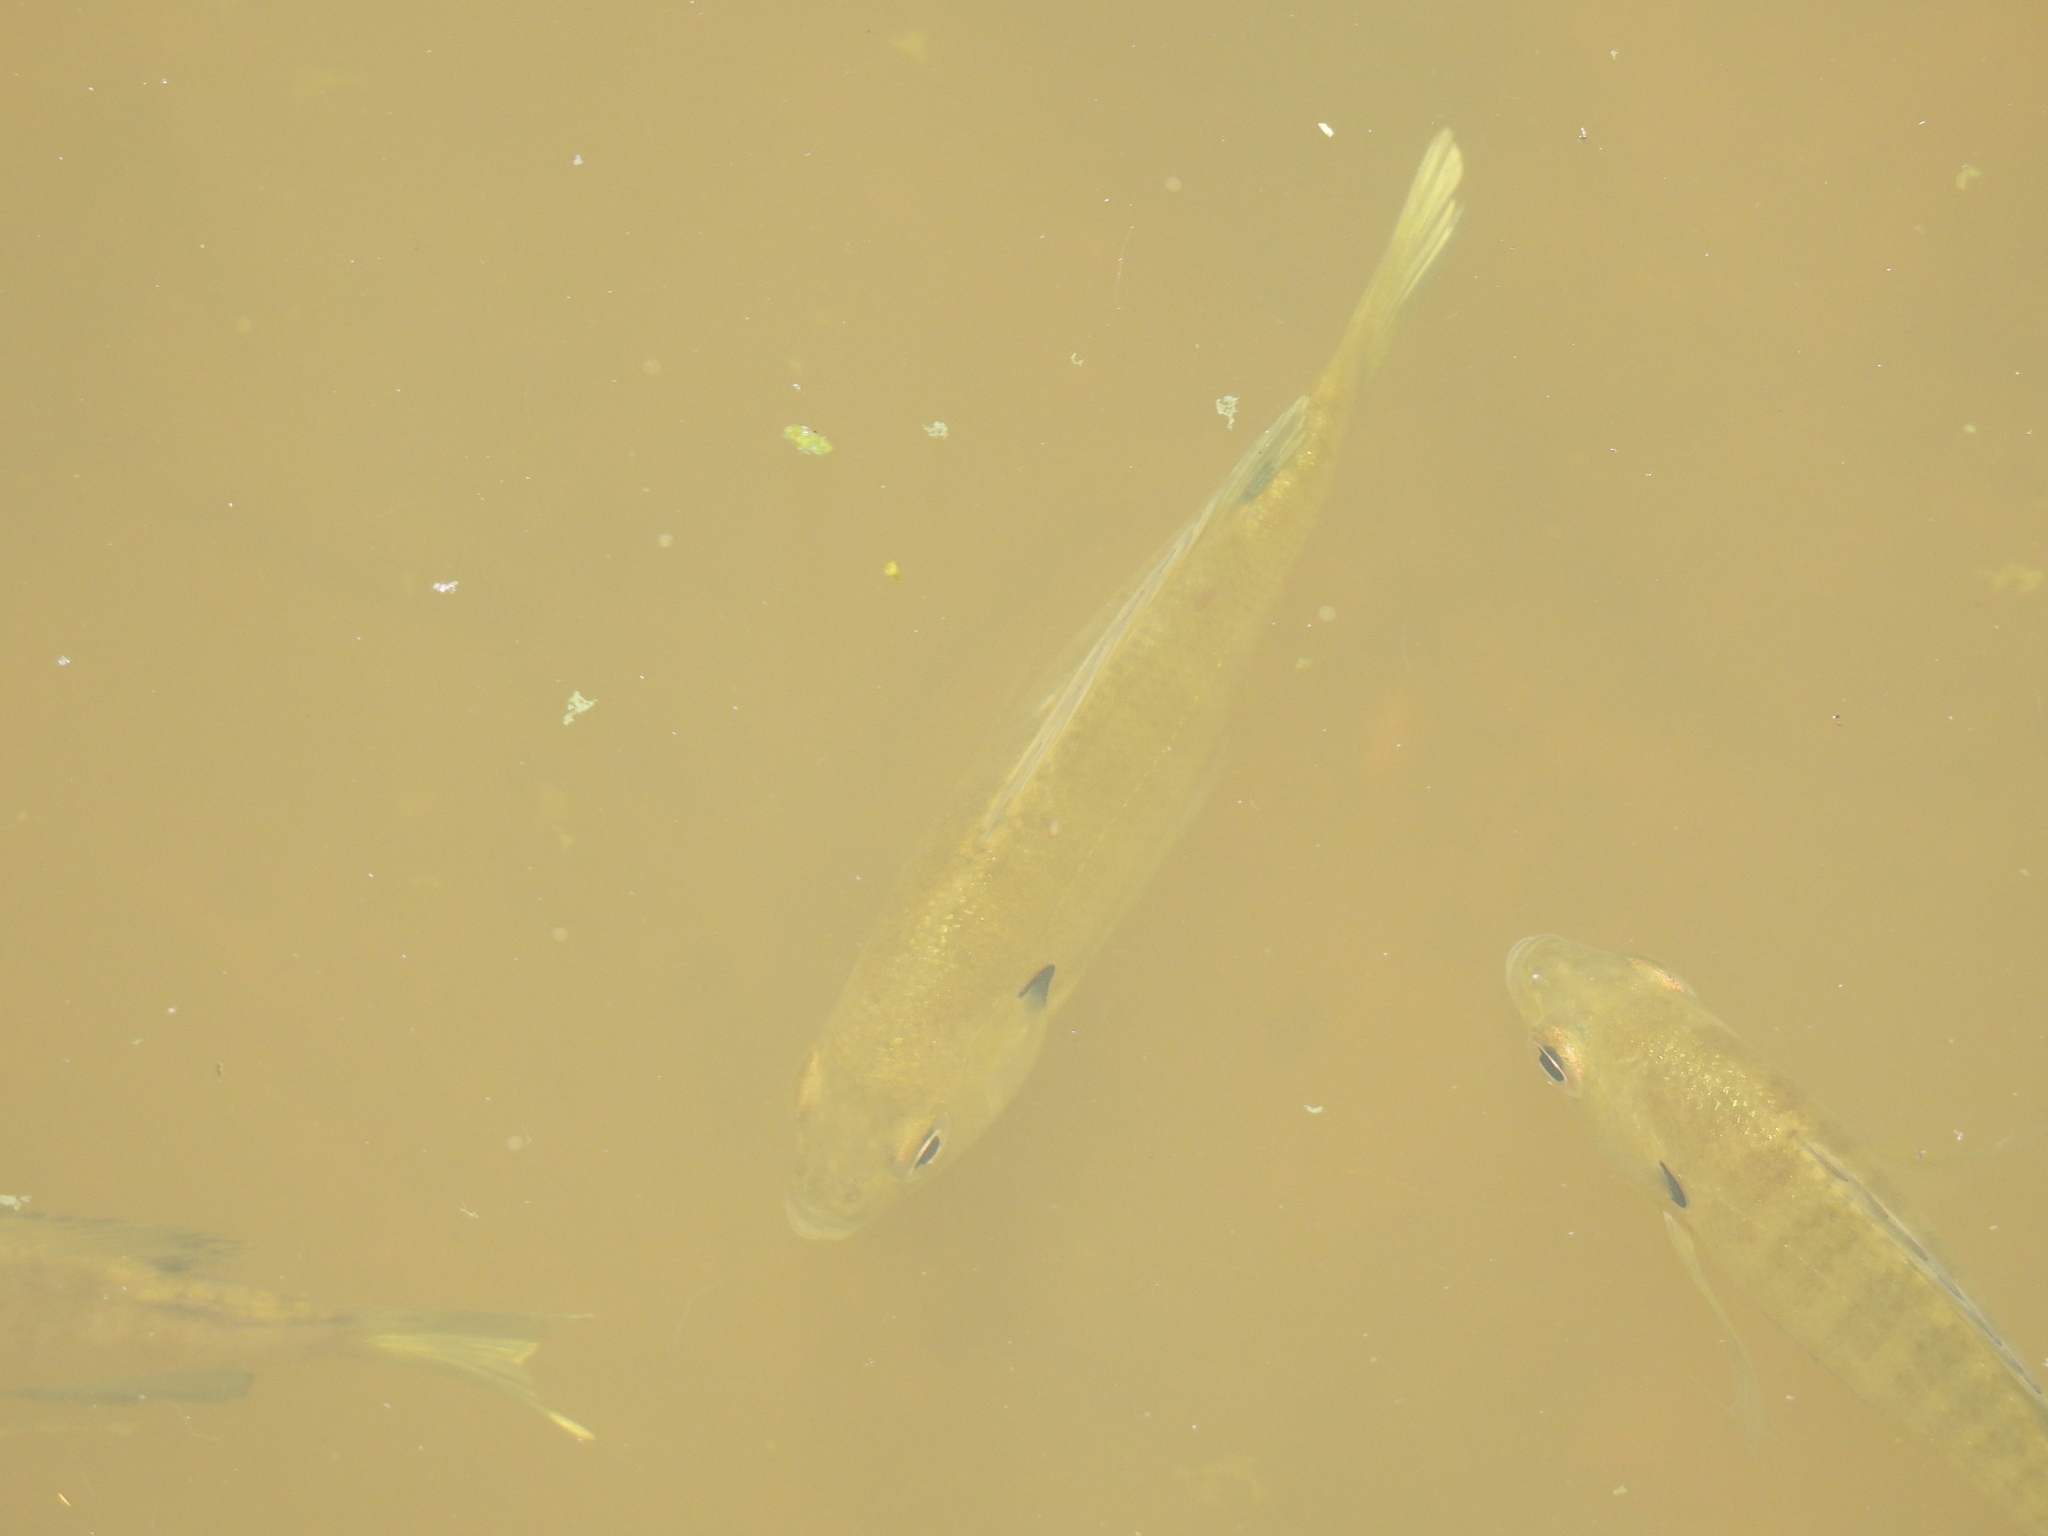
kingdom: Animalia
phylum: Chordata
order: Perciformes
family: Centrarchidae
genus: Lepomis
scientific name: Lepomis macrochirus
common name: Bluegill
